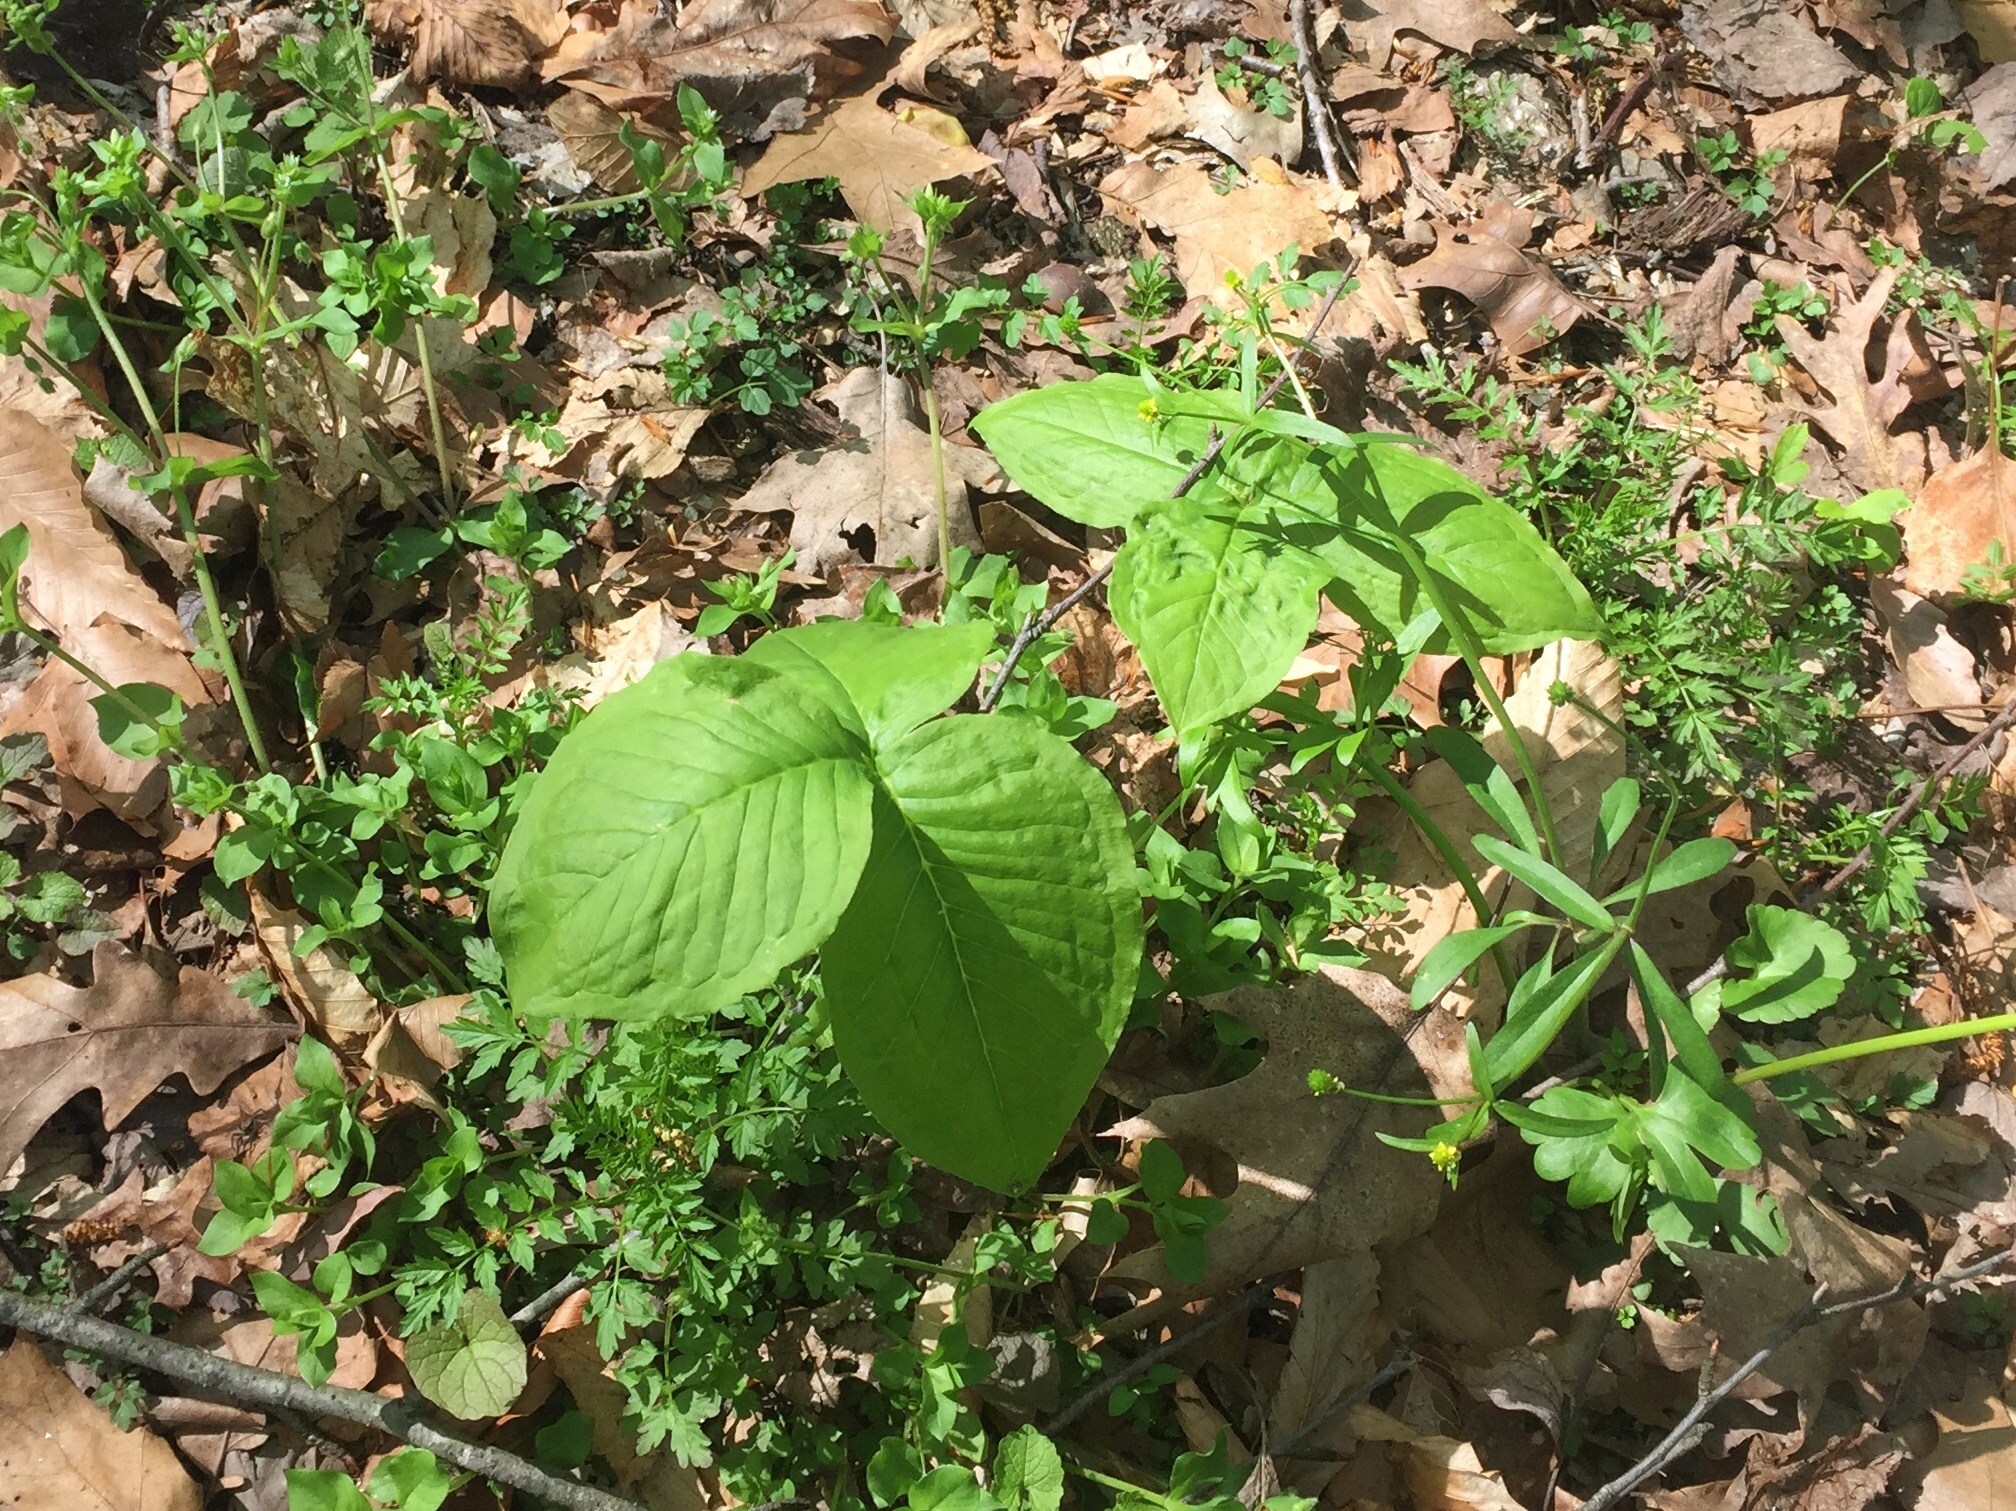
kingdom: Plantae
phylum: Tracheophyta
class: Liliopsida
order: Alismatales
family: Araceae
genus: Arisaema
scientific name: Arisaema triphyllum
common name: Jack-in-the-pulpit
